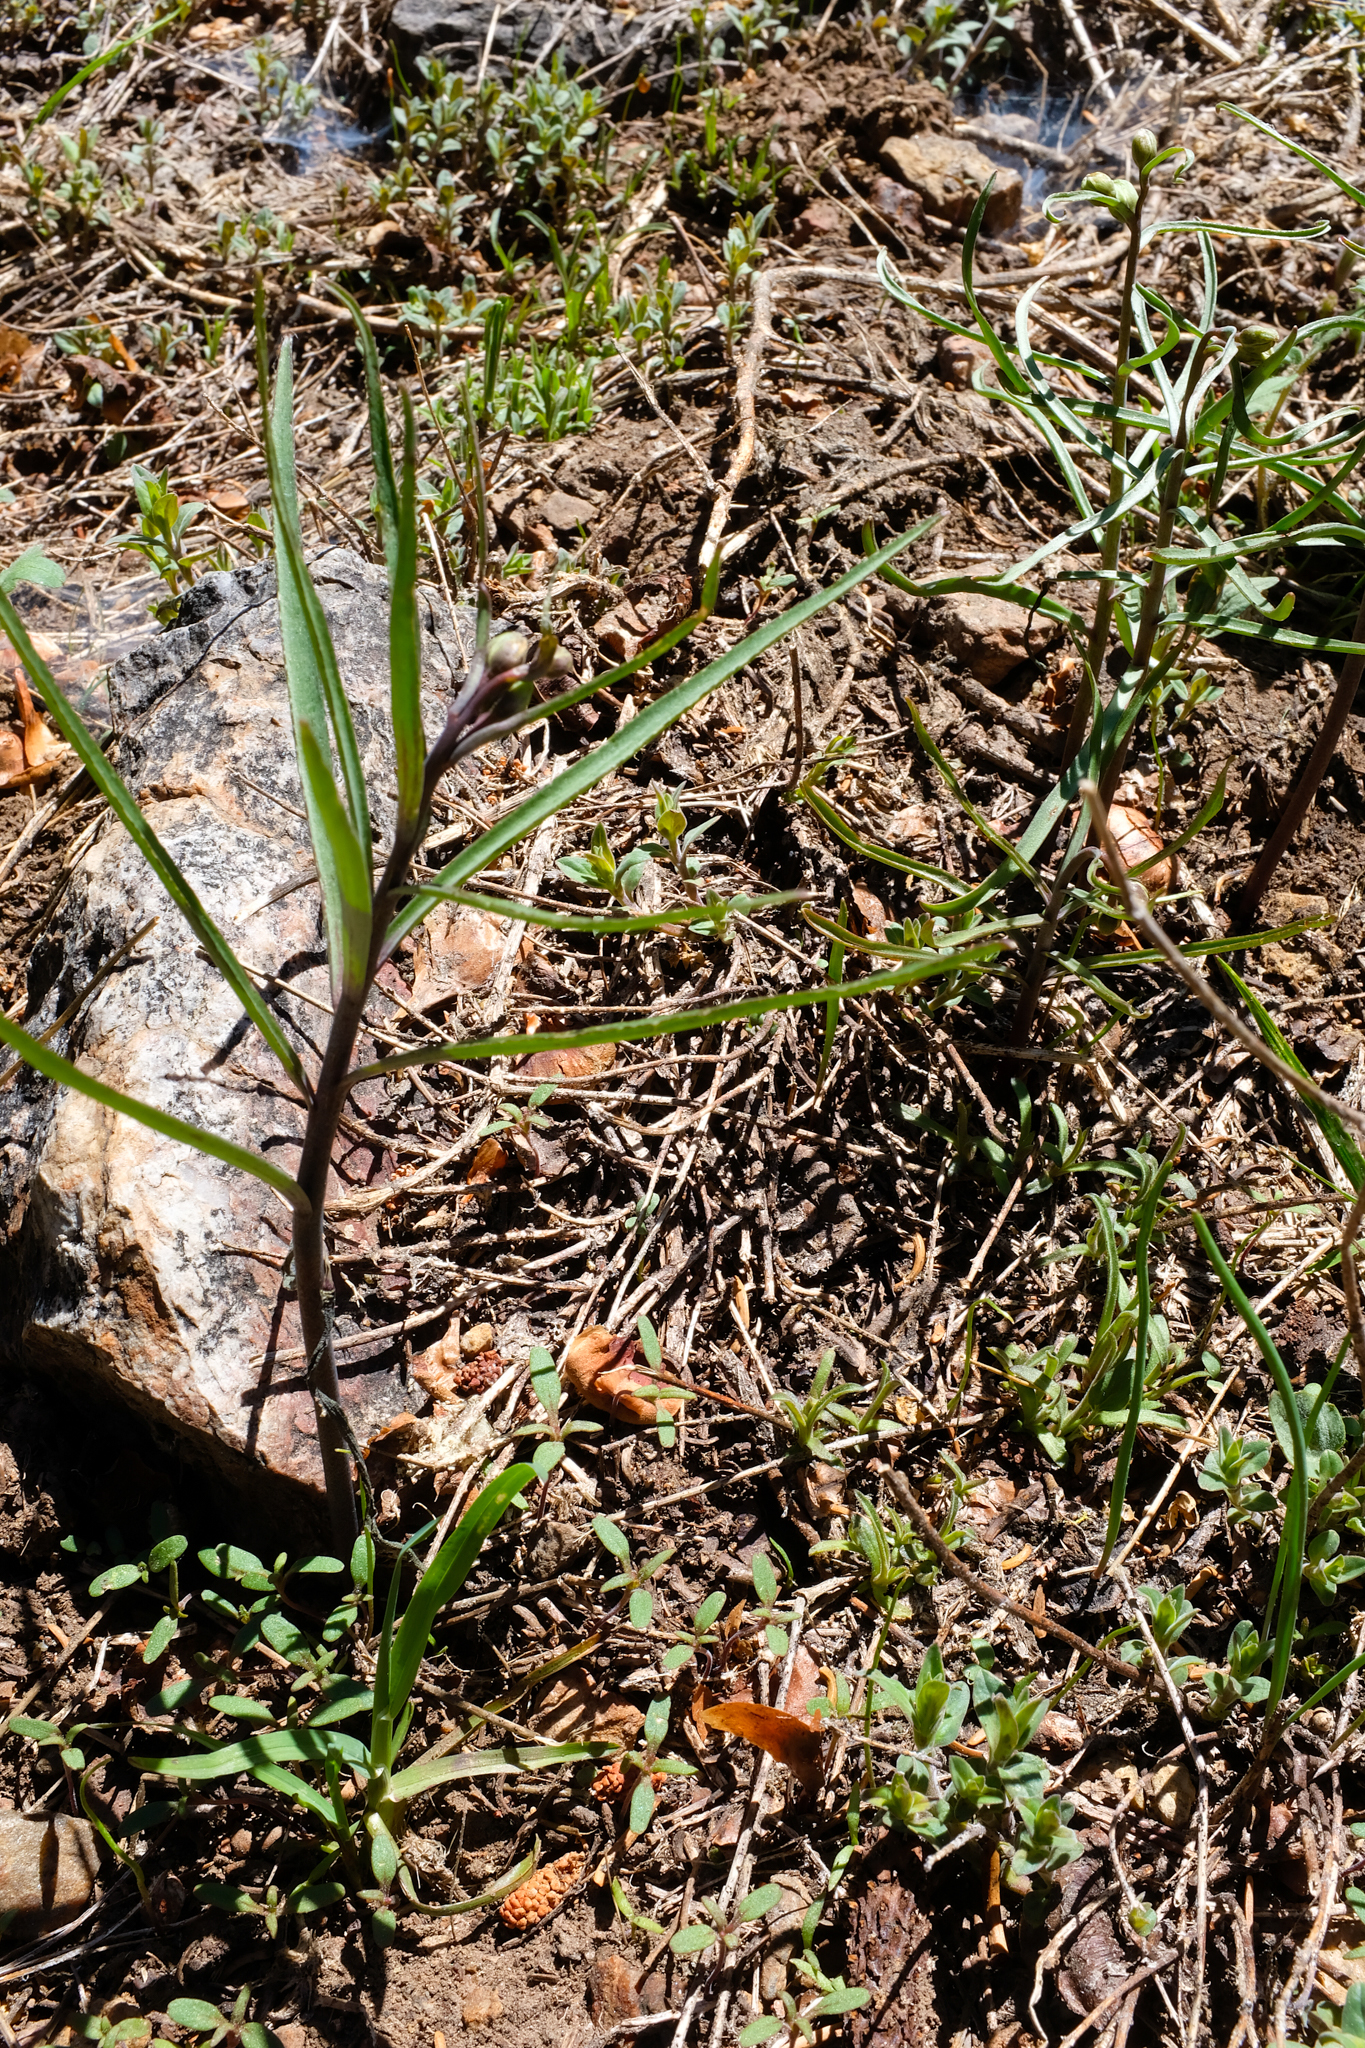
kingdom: Plantae
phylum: Tracheophyta
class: Liliopsida
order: Liliales
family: Liliaceae
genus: Fritillaria
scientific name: Fritillaria pinetorum
